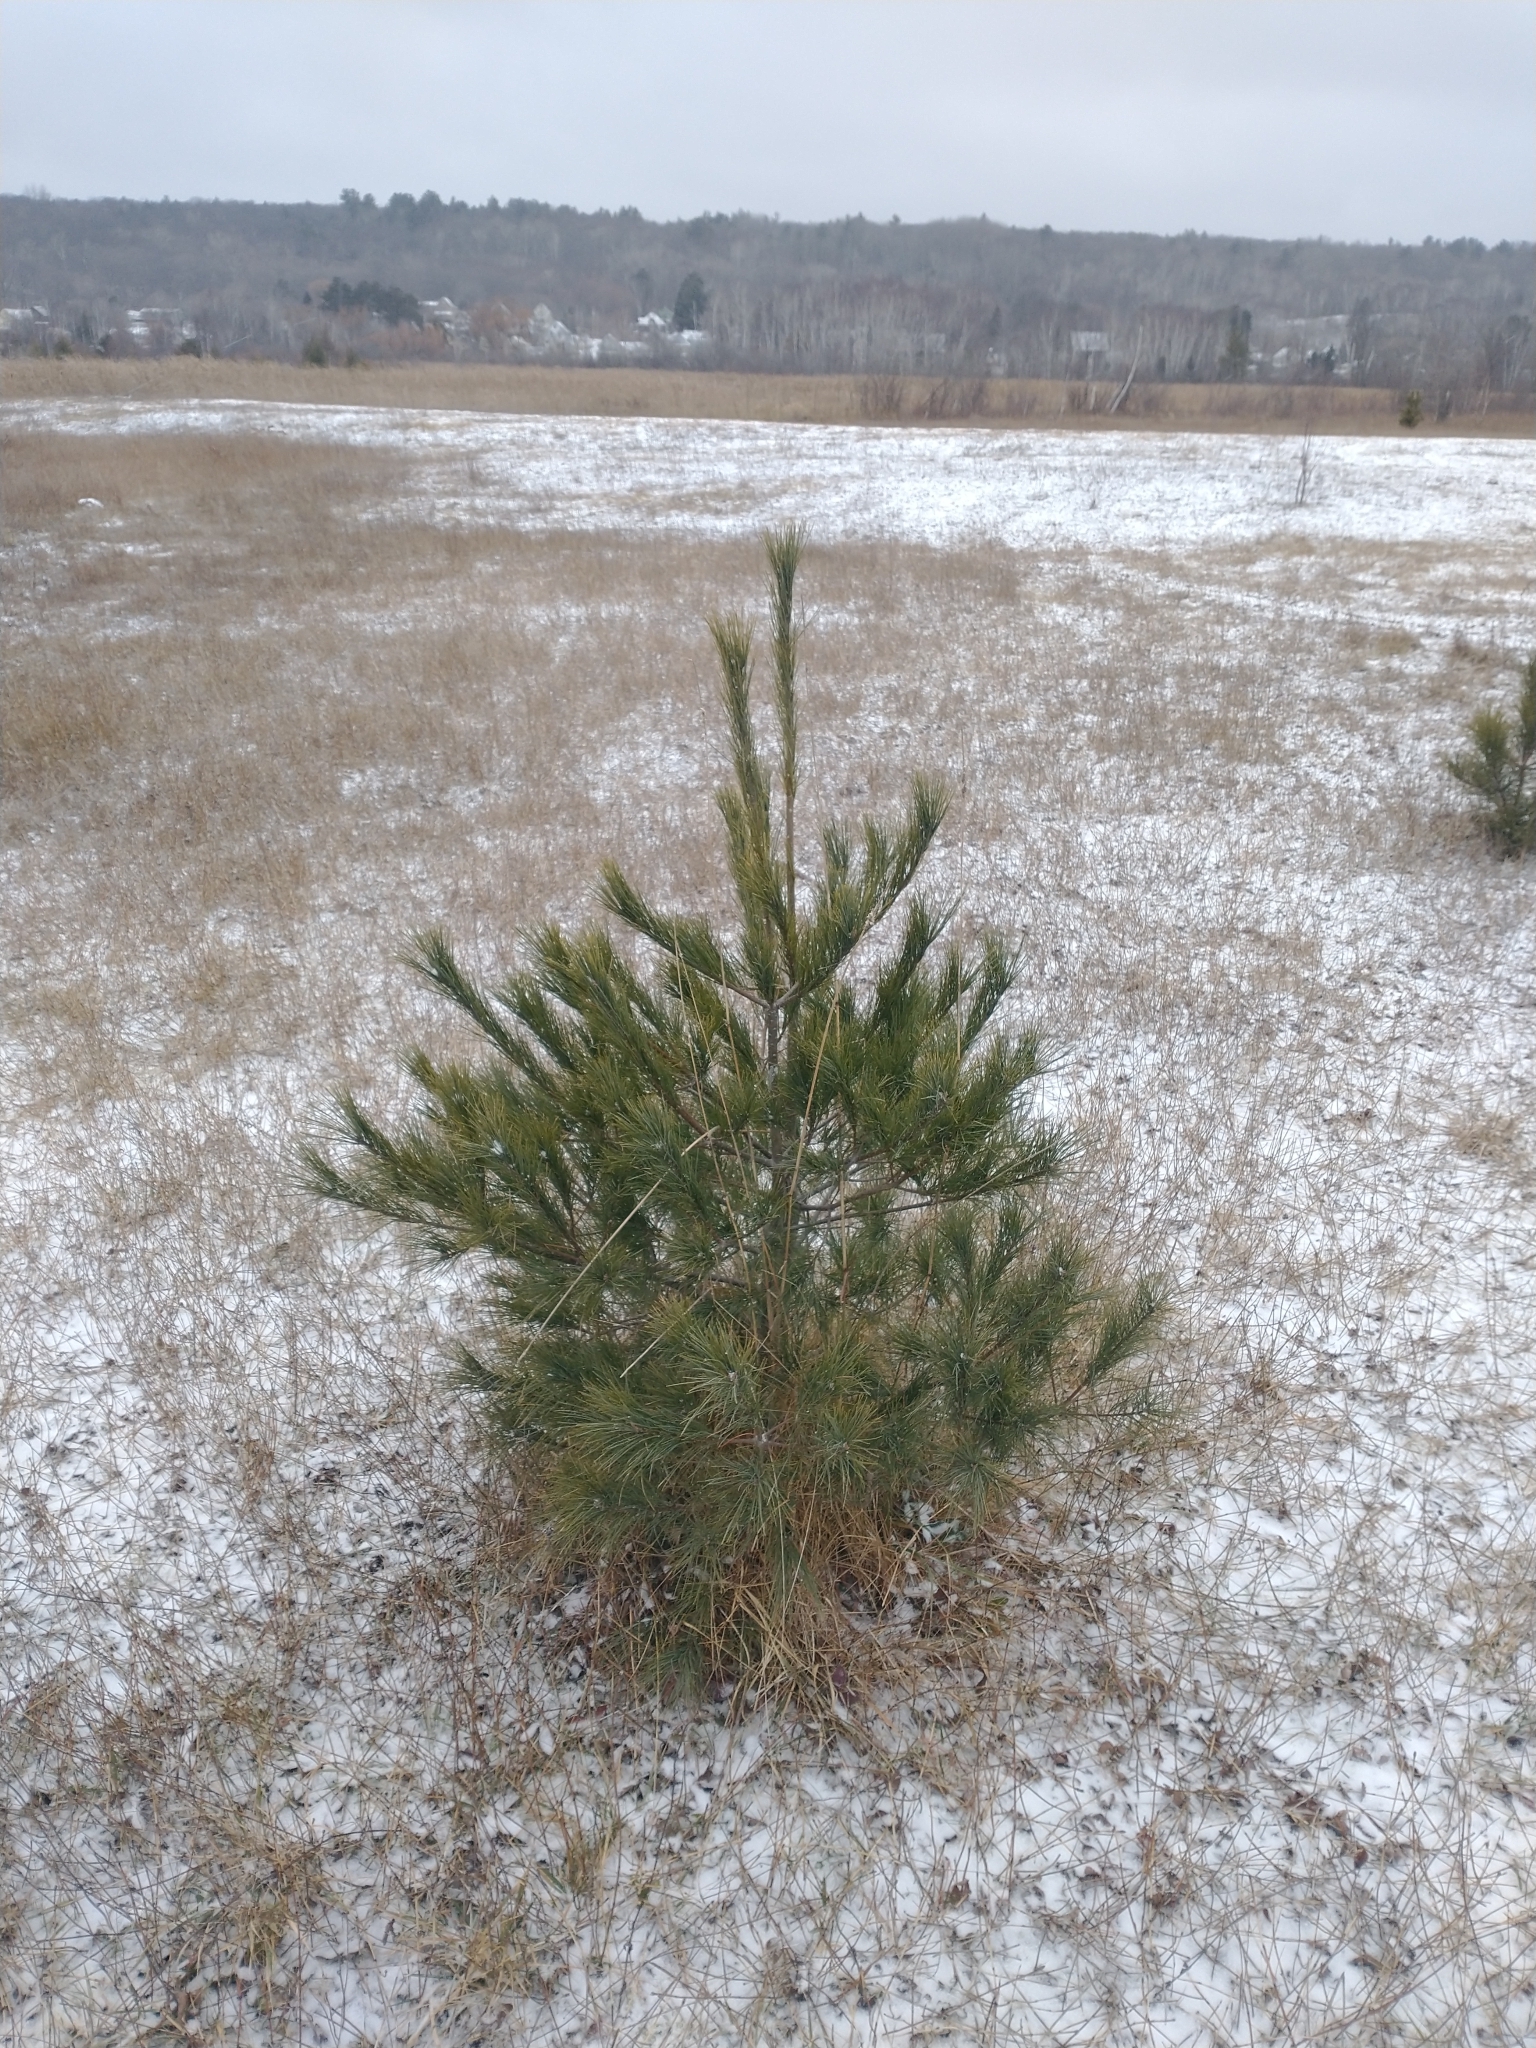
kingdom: Plantae
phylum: Tracheophyta
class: Pinopsida
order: Pinales
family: Pinaceae
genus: Pinus
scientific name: Pinus strobus
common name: Weymouth pine
